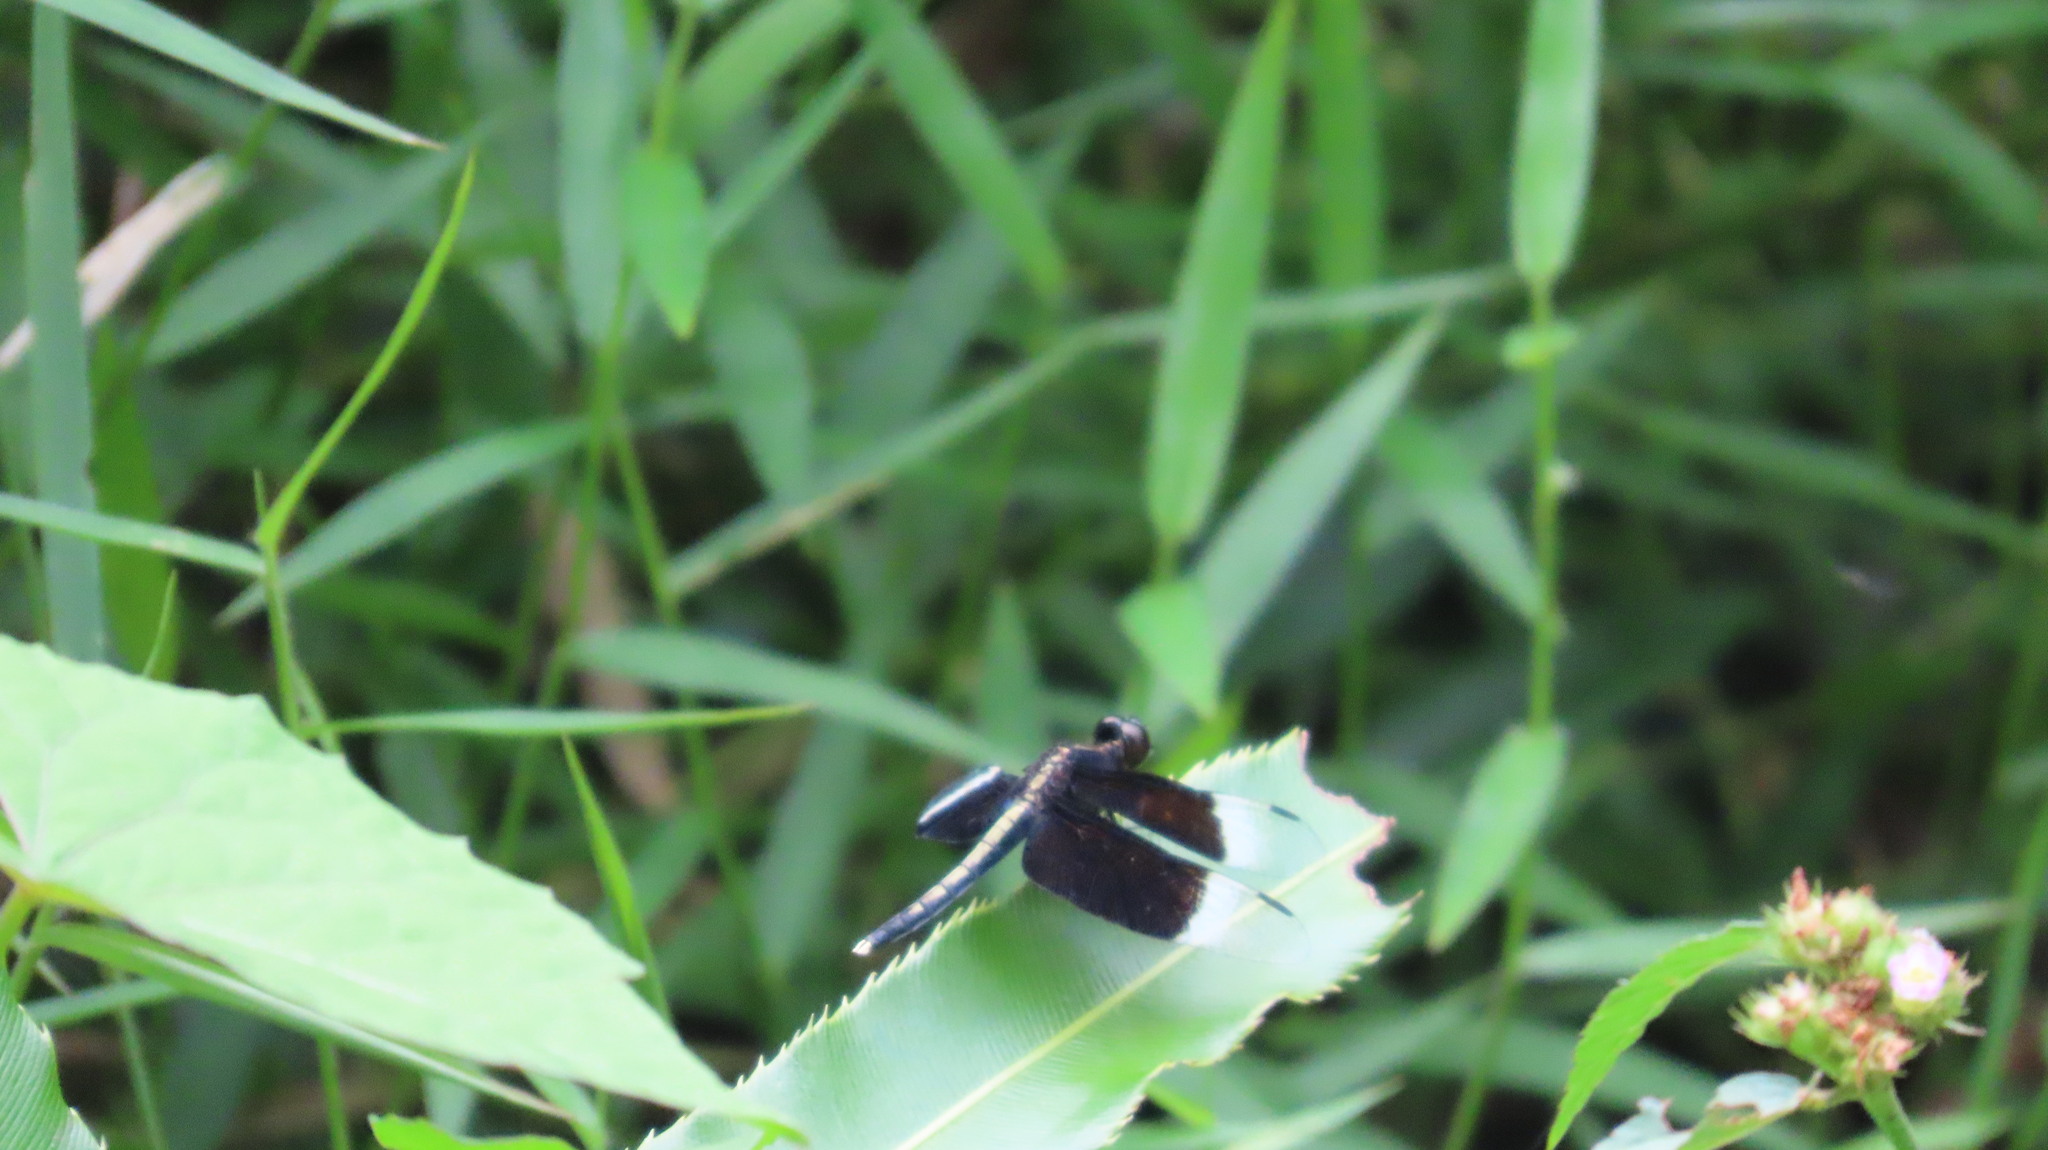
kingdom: Animalia
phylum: Arthropoda
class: Insecta
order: Odonata
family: Libellulidae
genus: Neurothemis
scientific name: Neurothemis tullia
